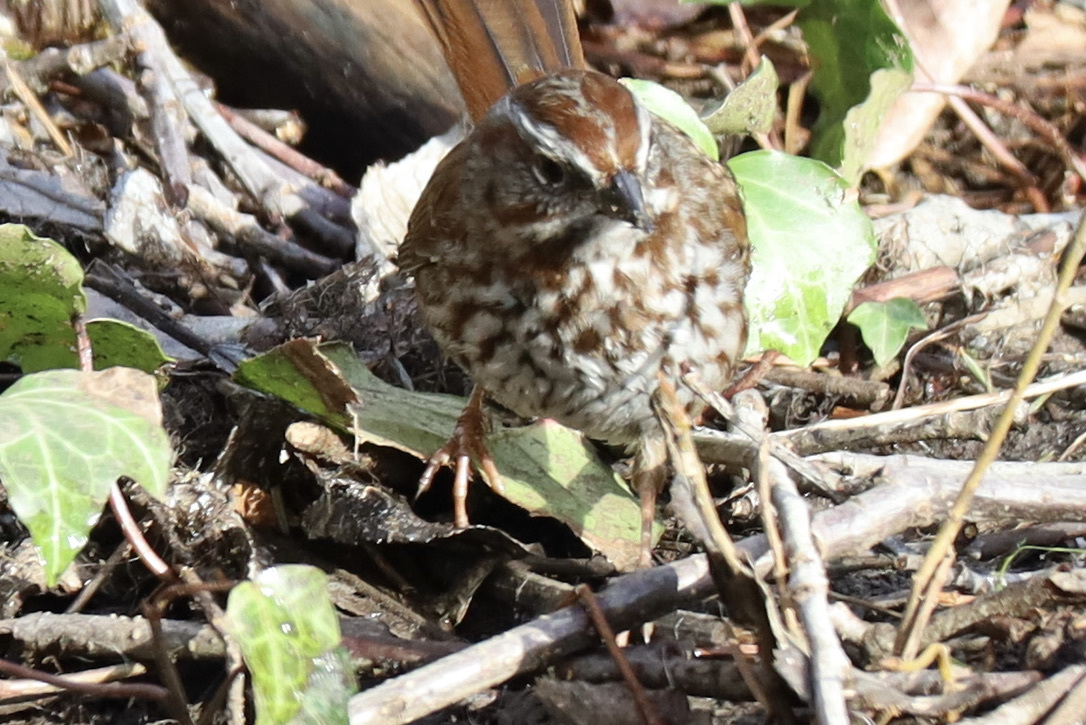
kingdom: Animalia
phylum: Chordata
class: Aves
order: Passeriformes
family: Passerellidae
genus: Melospiza
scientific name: Melospiza melodia
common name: Song sparrow
